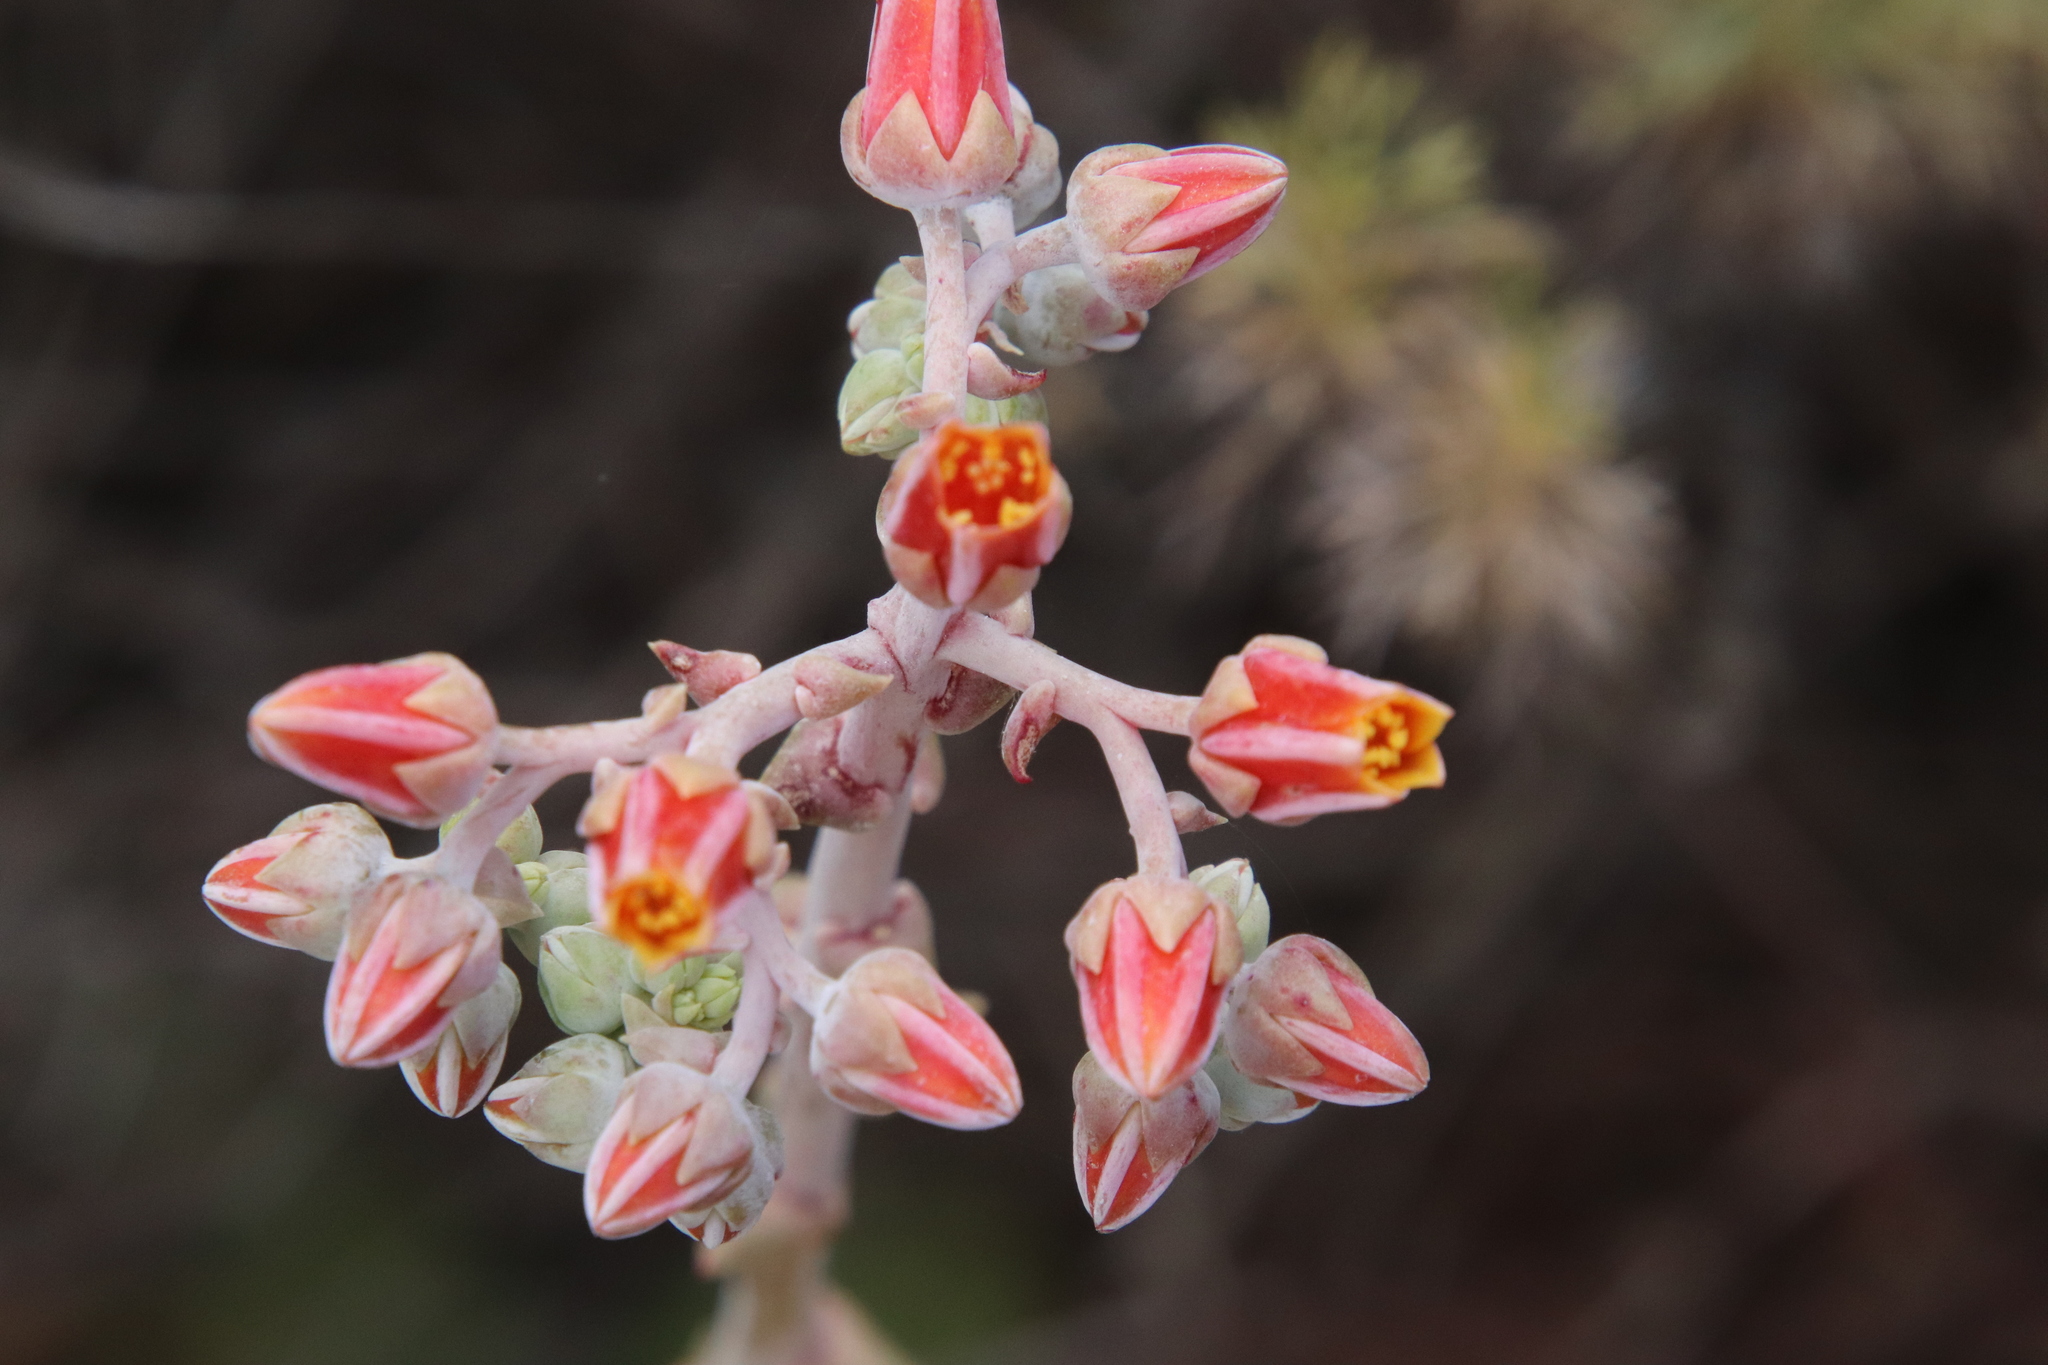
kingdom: Plantae
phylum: Tracheophyta
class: Magnoliopsida
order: Saxifragales
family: Crassulaceae
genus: Dudleya
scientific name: Dudleya lanceolata
